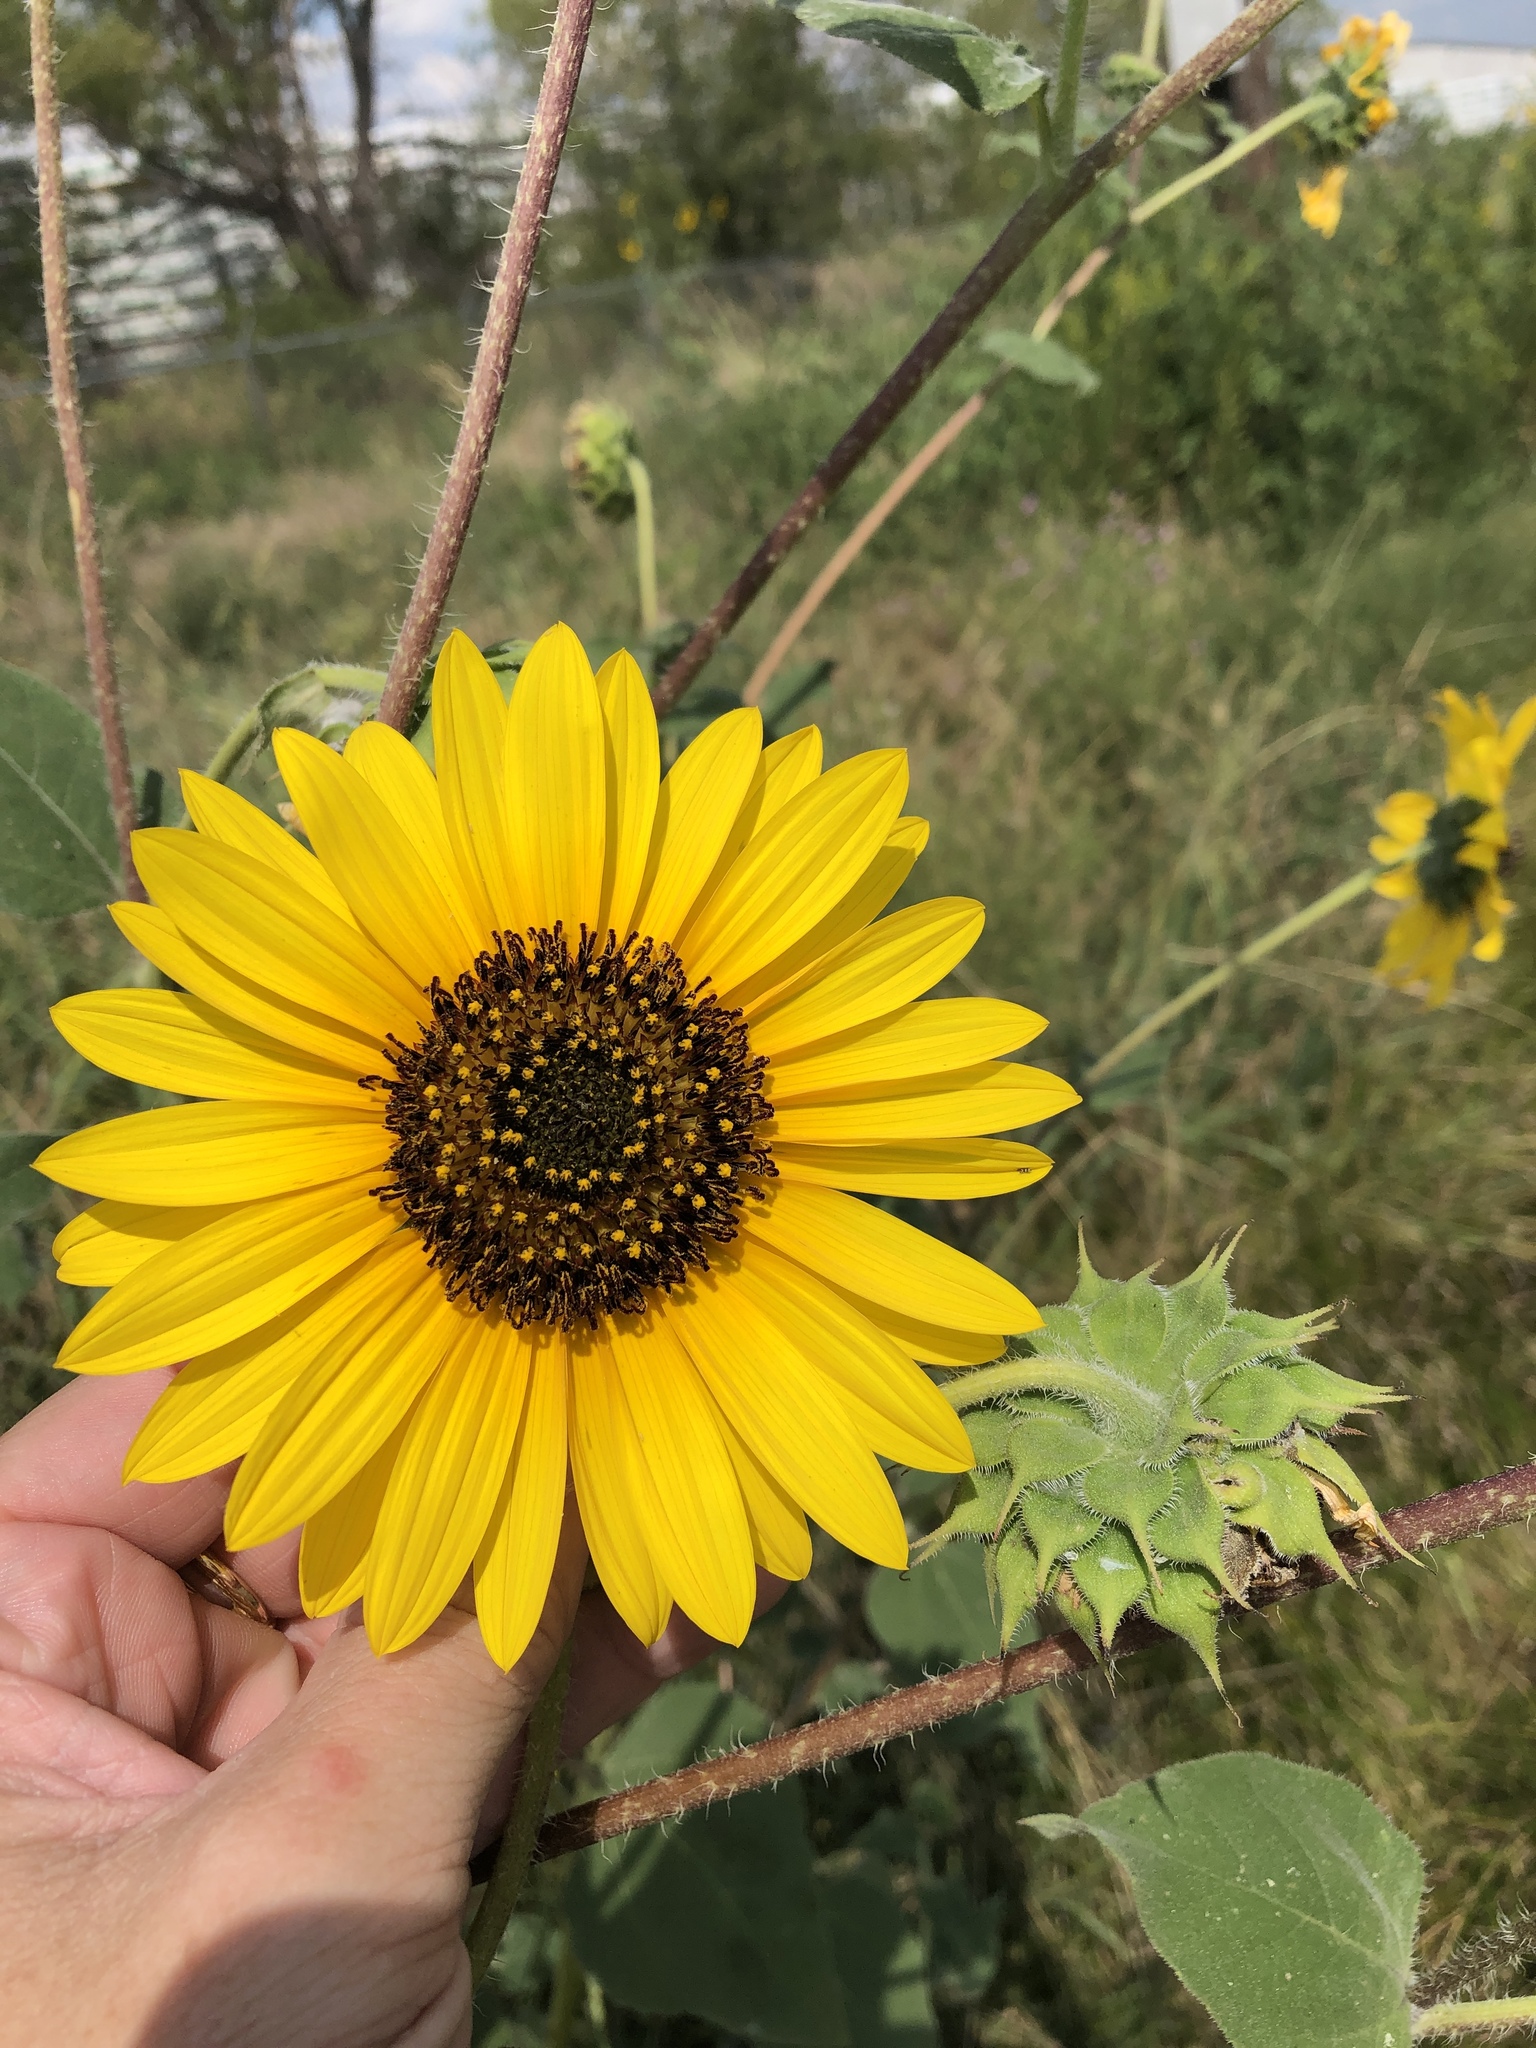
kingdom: Plantae
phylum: Tracheophyta
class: Magnoliopsida
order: Asterales
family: Asteraceae
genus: Helianthus
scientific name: Helianthus annuus
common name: Sunflower
